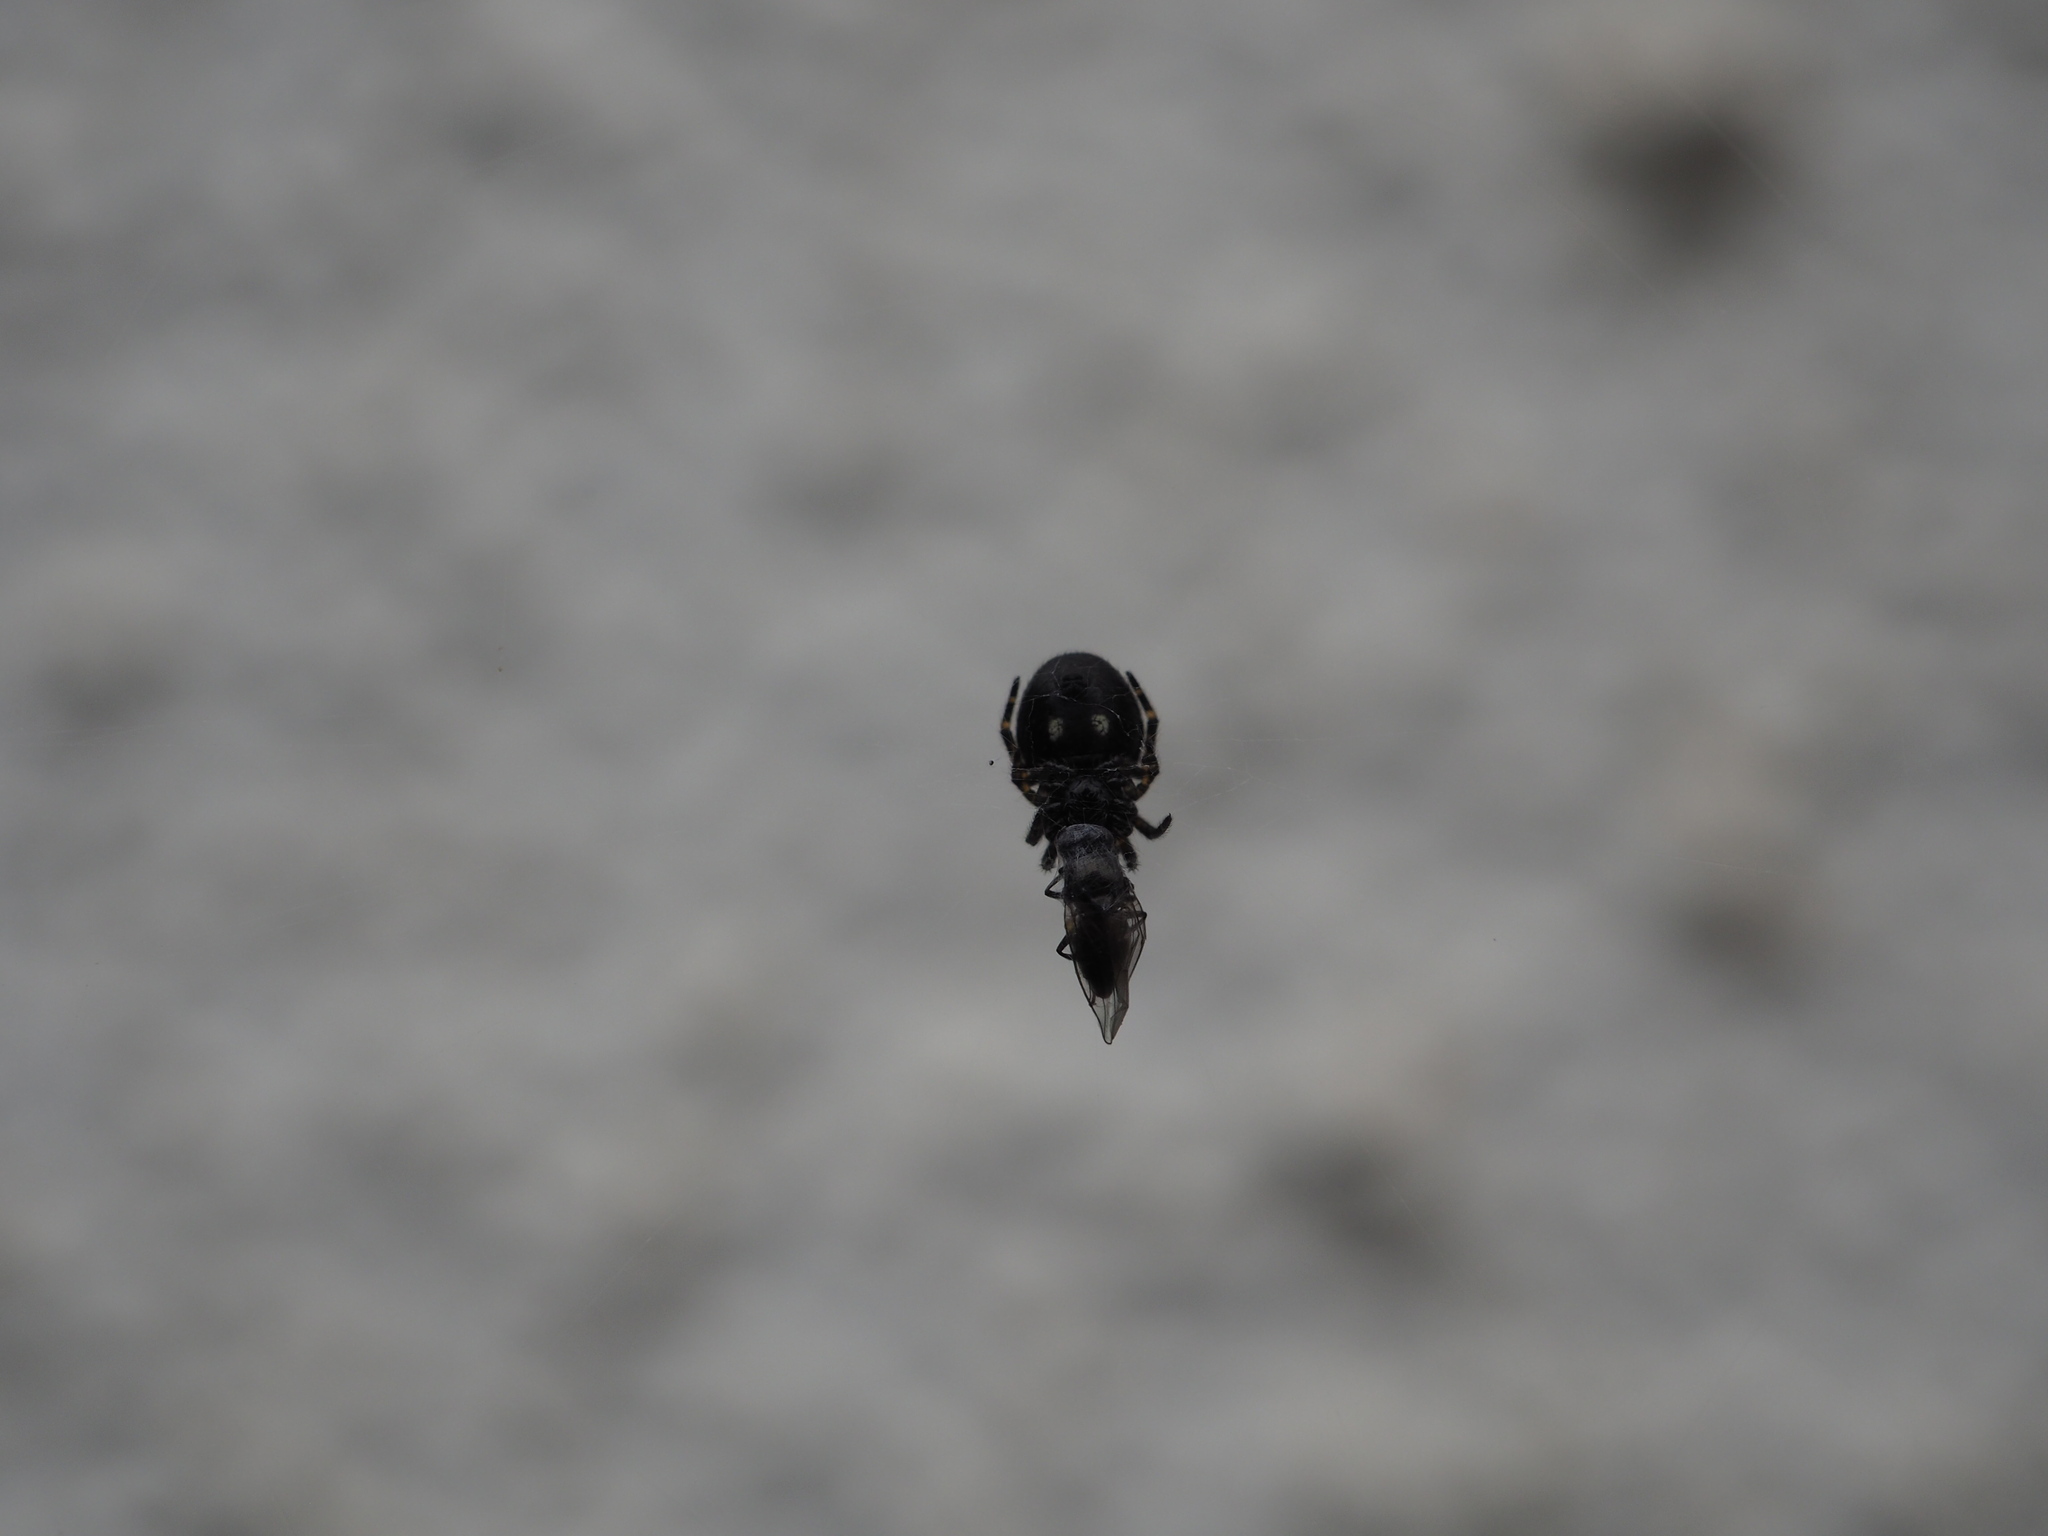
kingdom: Animalia
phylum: Arthropoda
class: Arachnida
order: Araneae
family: Araneidae
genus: Nuctenea
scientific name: Nuctenea umbratica
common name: Toad spider
